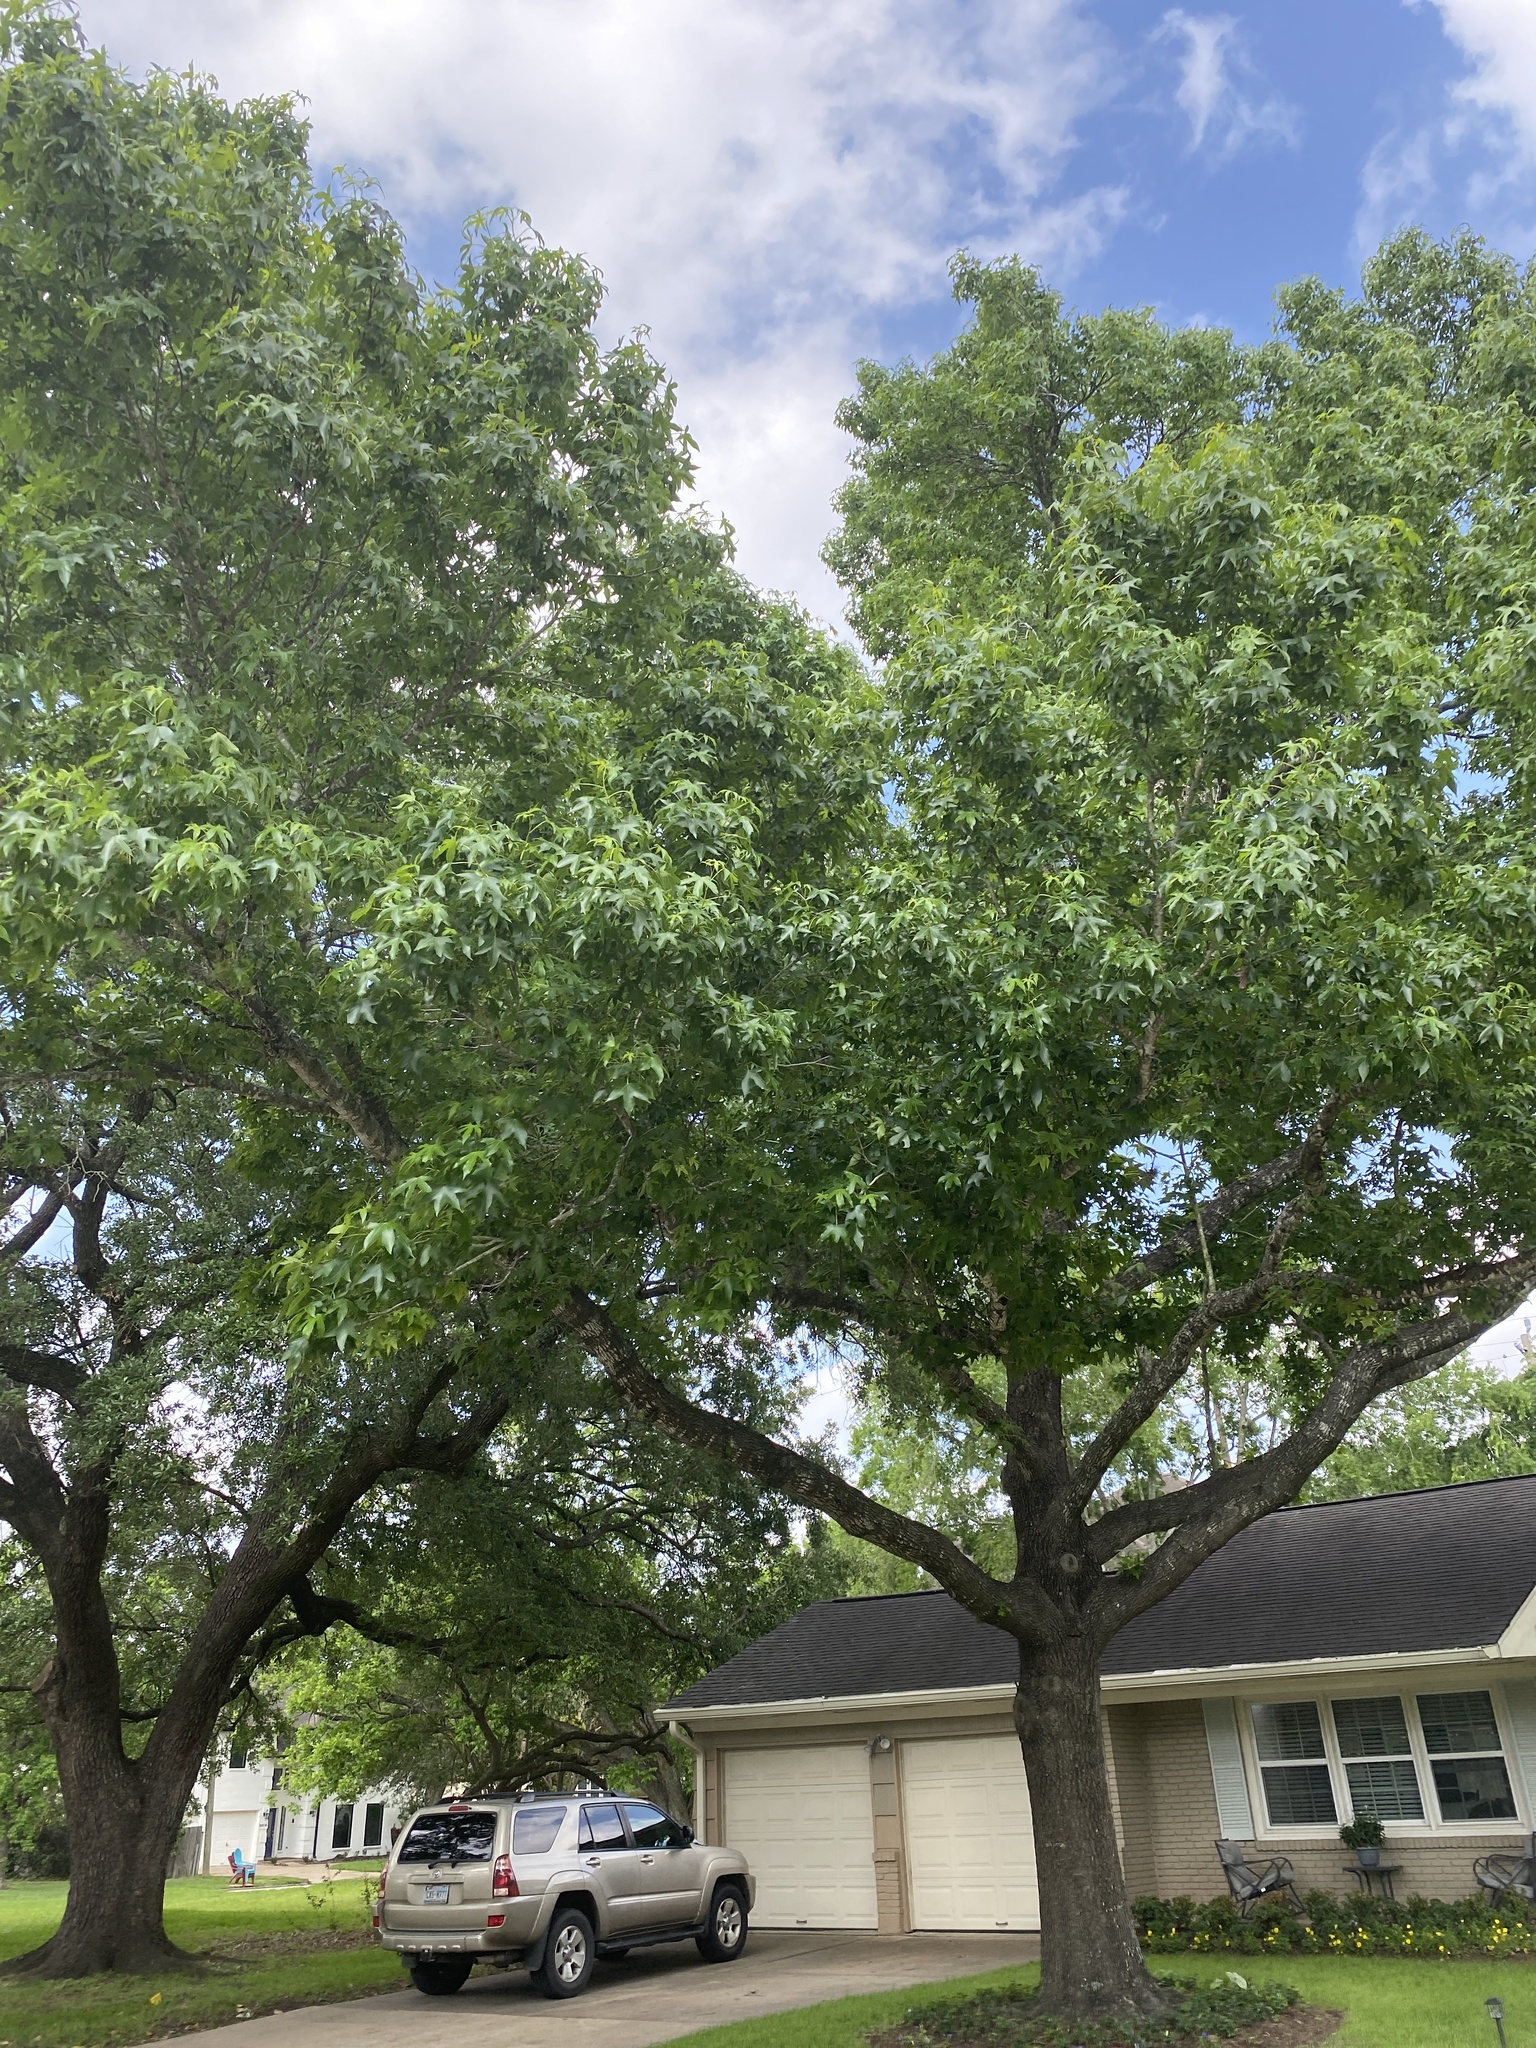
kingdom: Plantae
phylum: Tracheophyta
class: Magnoliopsida
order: Saxifragales
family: Altingiaceae
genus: Liquidambar
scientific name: Liquidambar styraciflua
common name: Sweet gum
